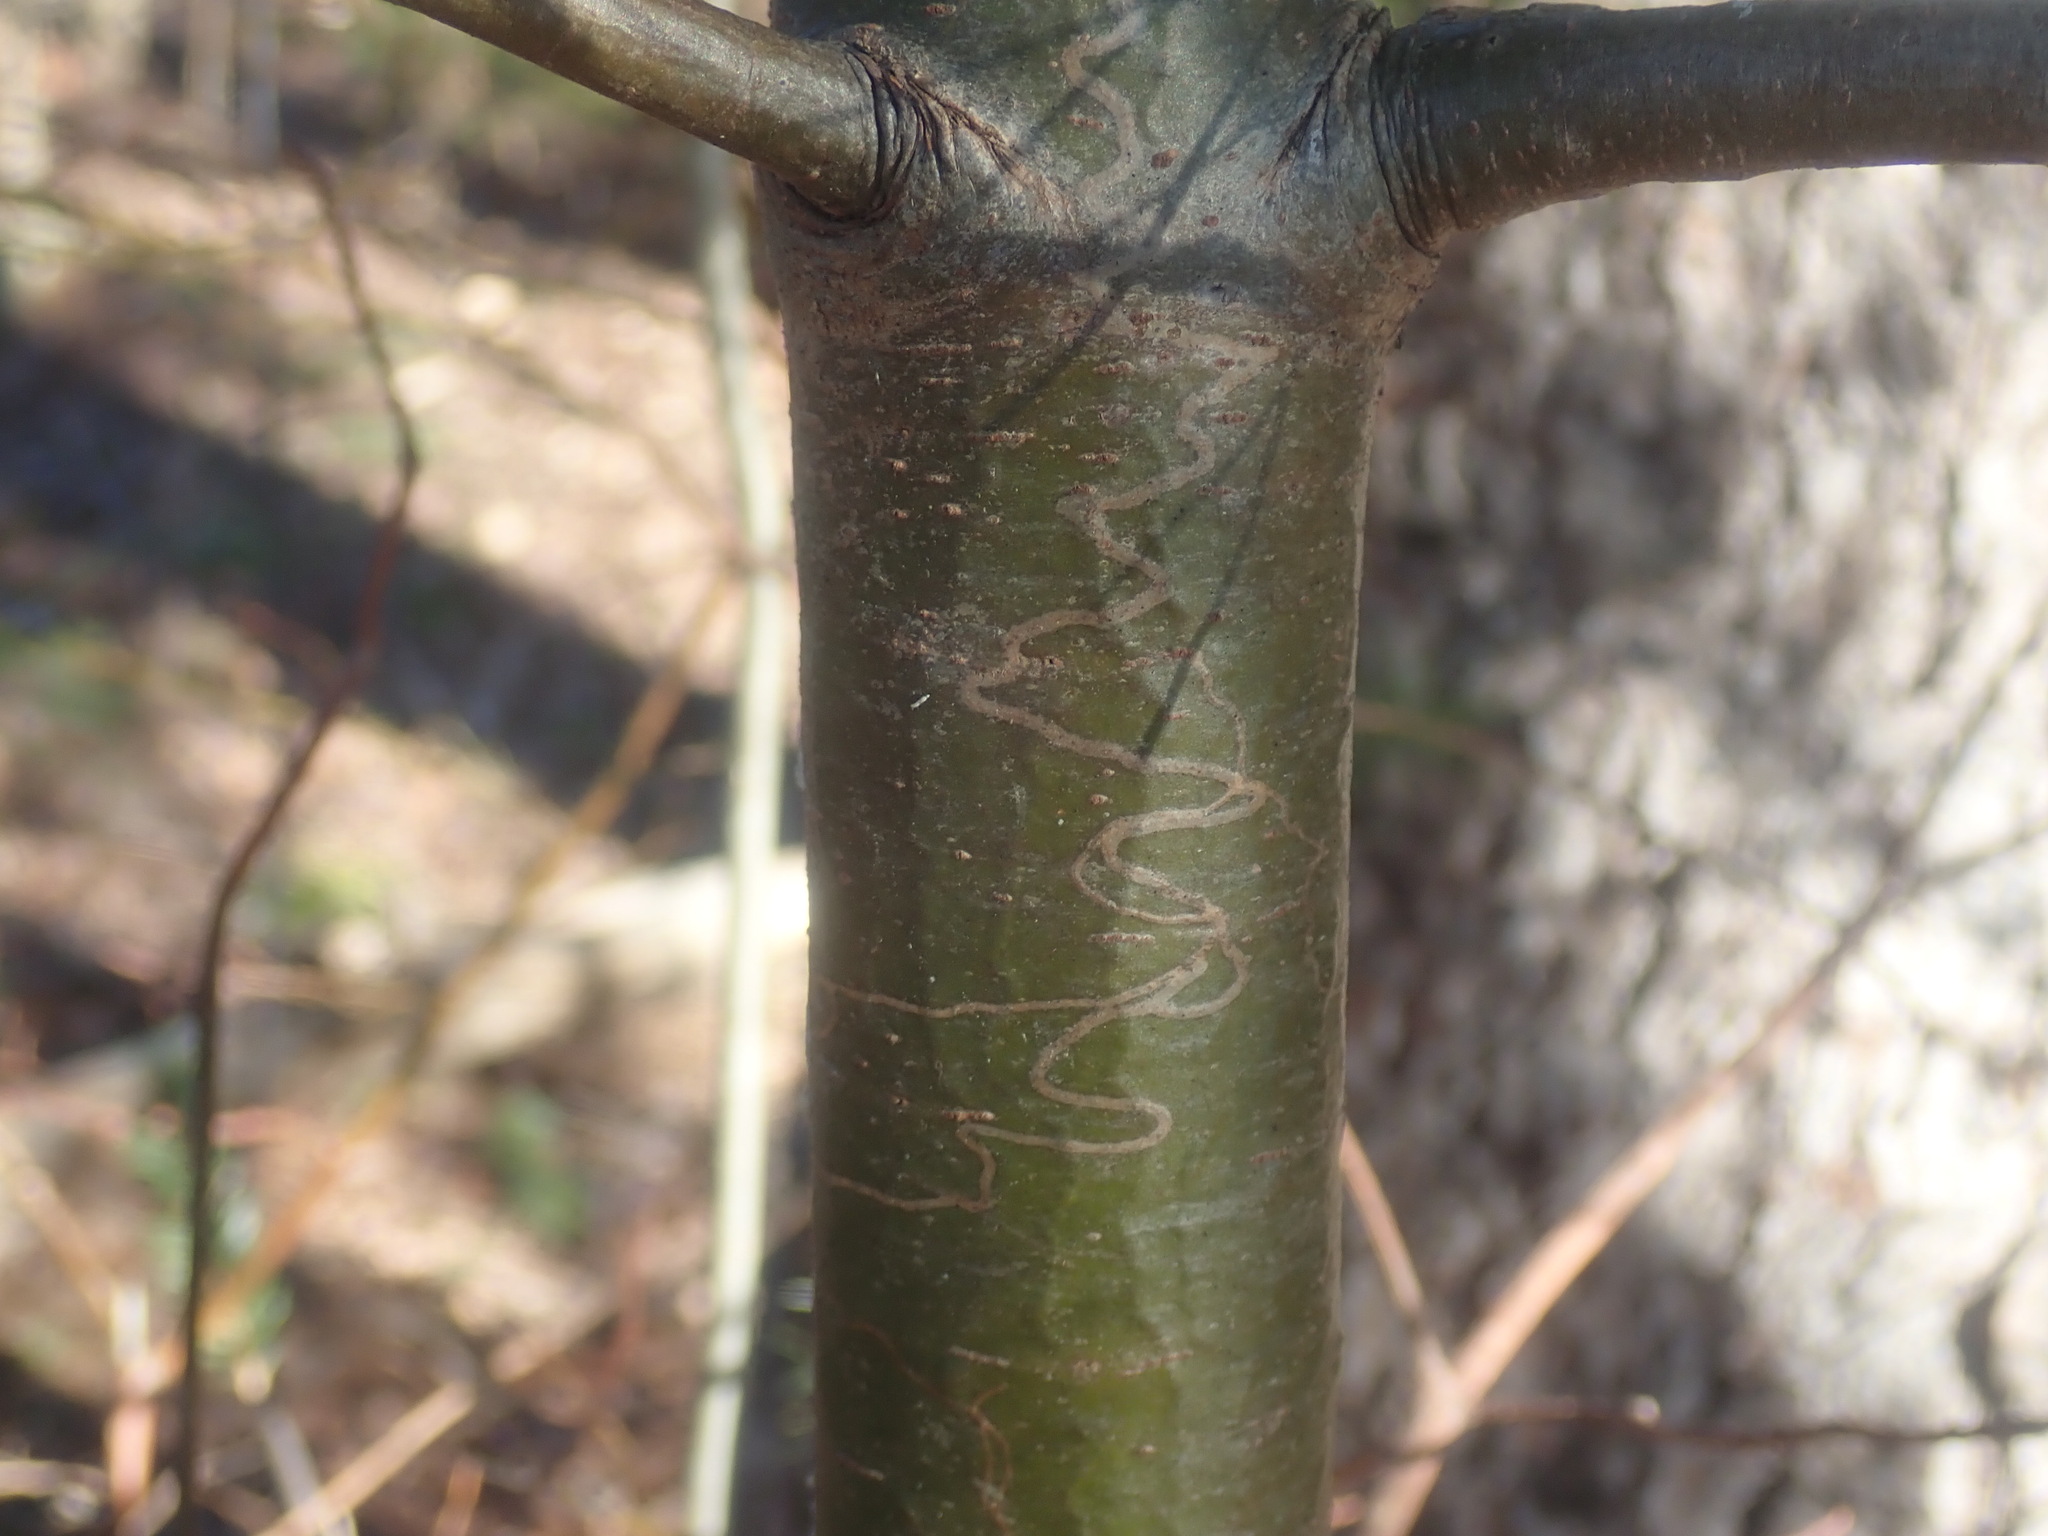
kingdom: Animalia
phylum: Arthropoda
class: Insecta
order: Lepidoptera
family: Gracillariidae
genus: Marmara
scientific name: Marmara fasciella
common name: White pine barkminer moth
